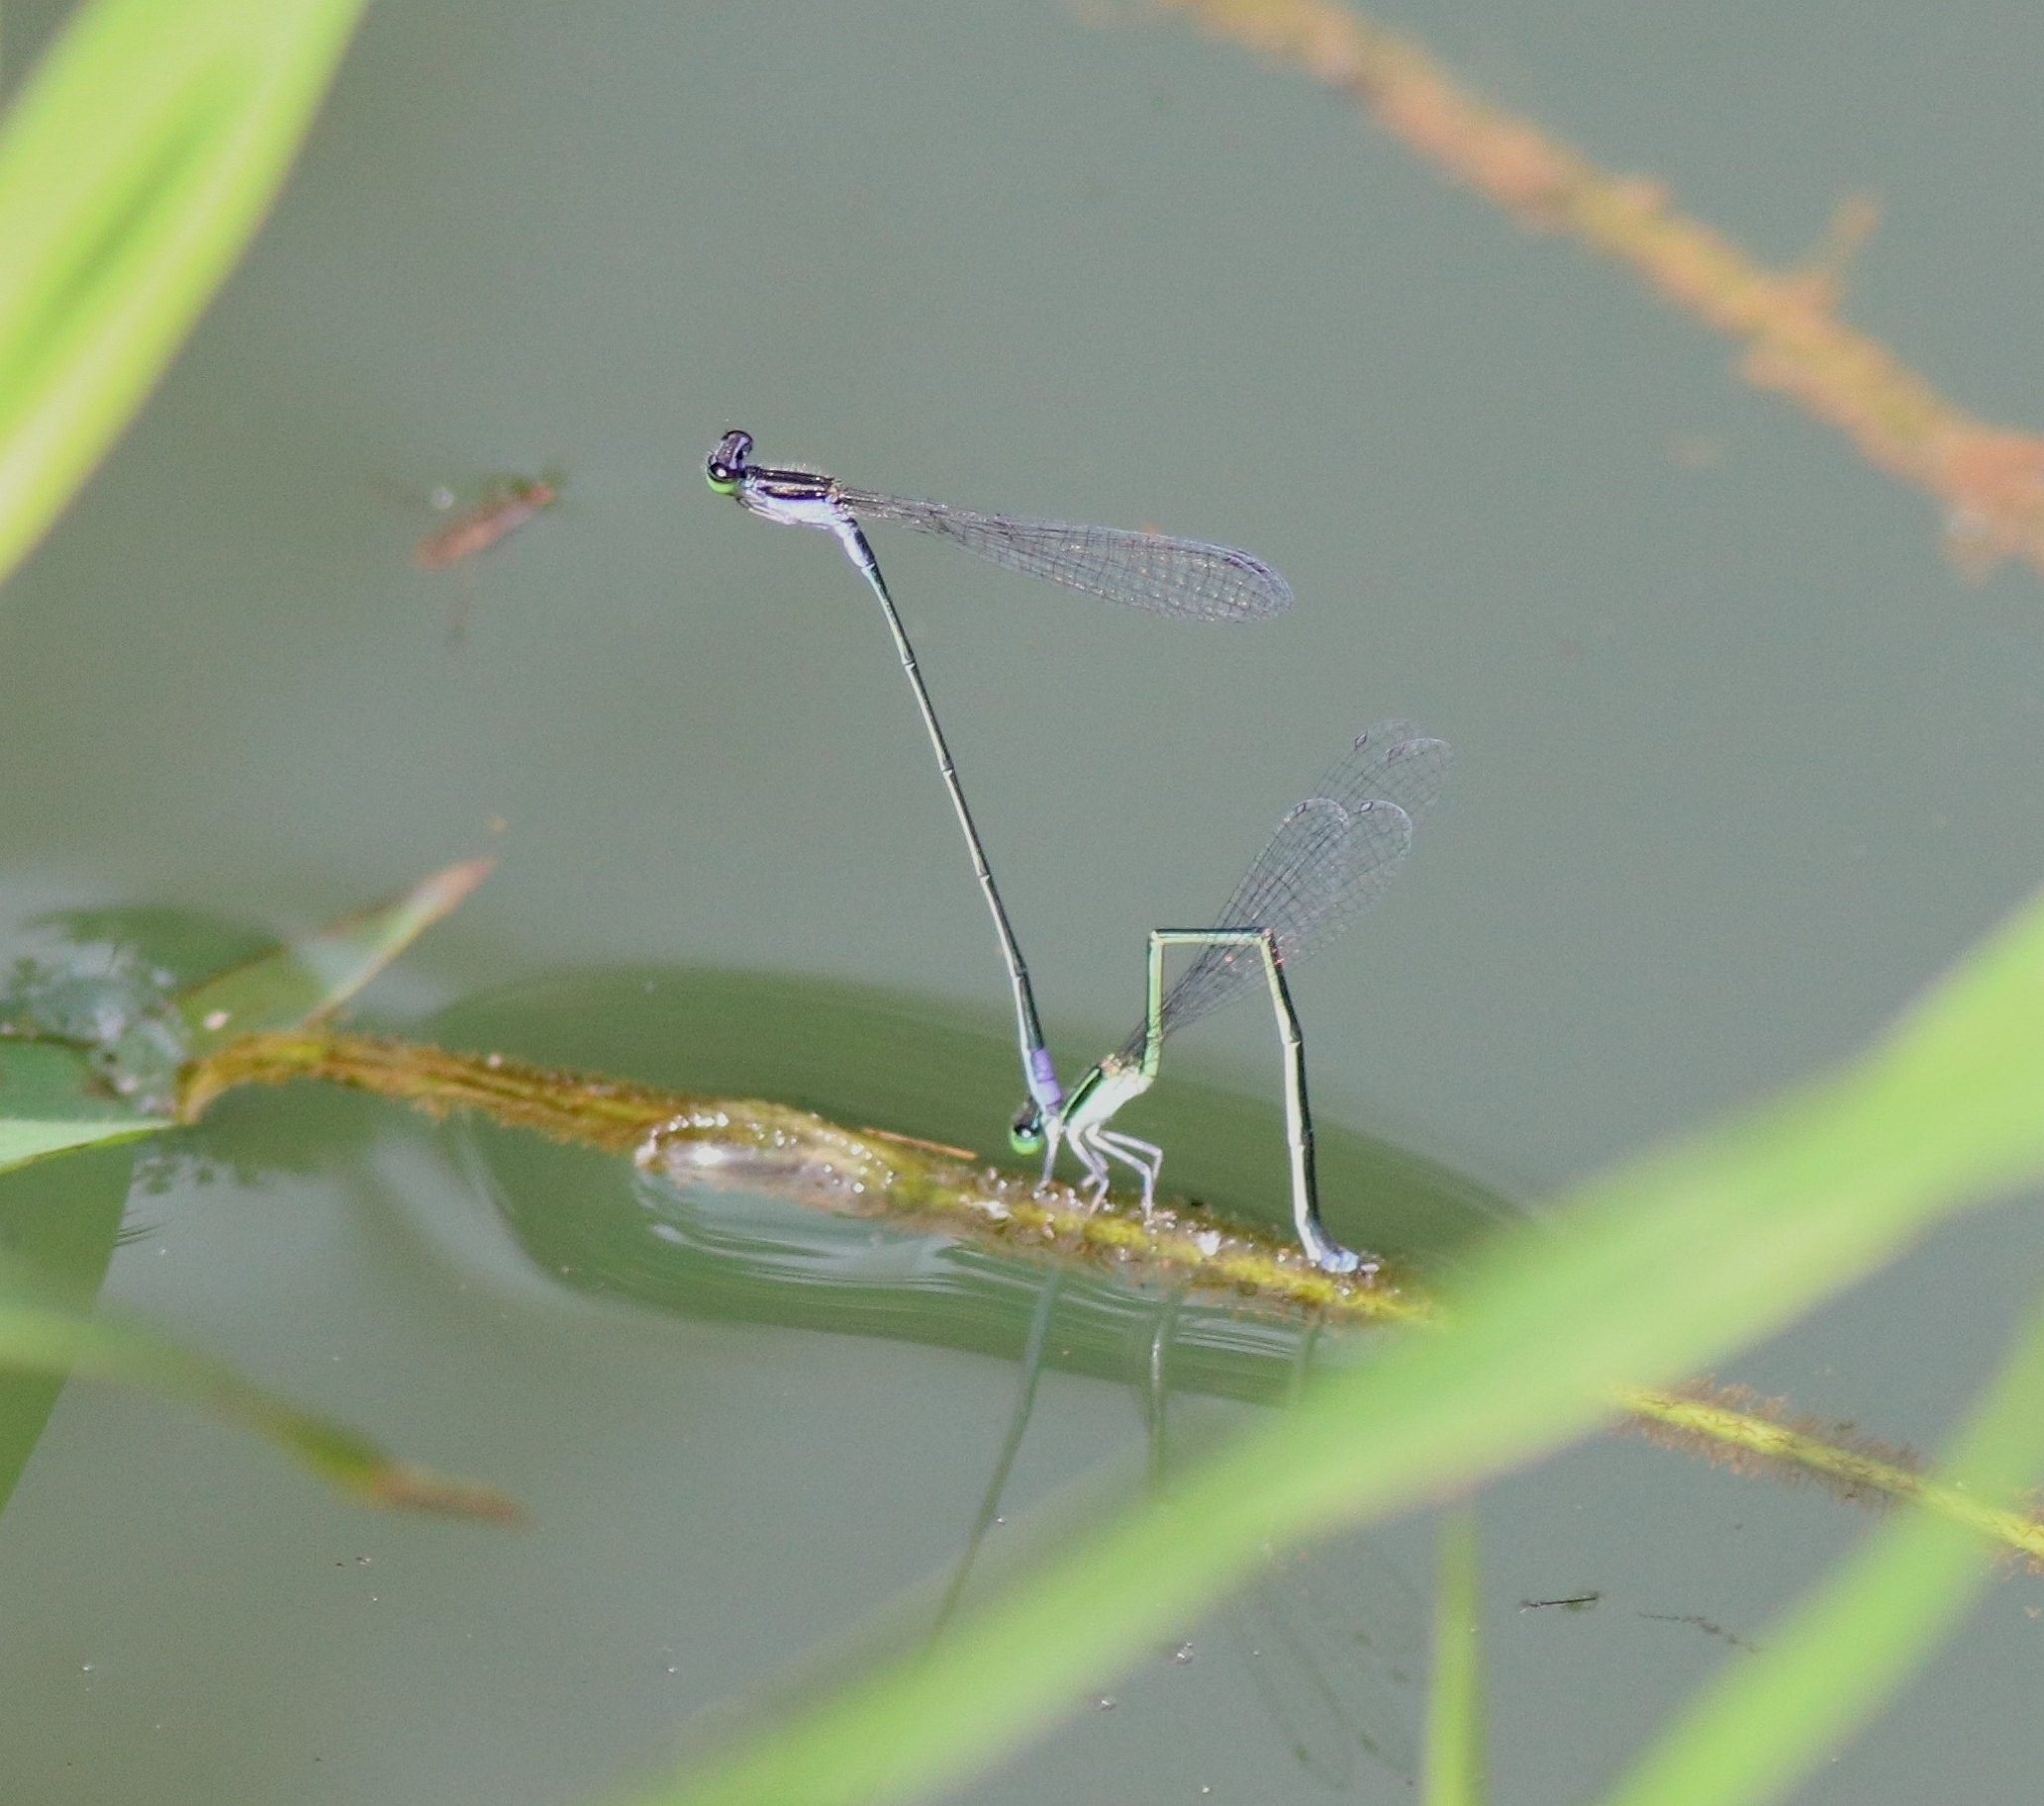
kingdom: Animalia
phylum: Arthropoda
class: Insecta
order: Odonata
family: Coenagrionidae
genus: Aciagrion
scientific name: Aciagrion approximans
